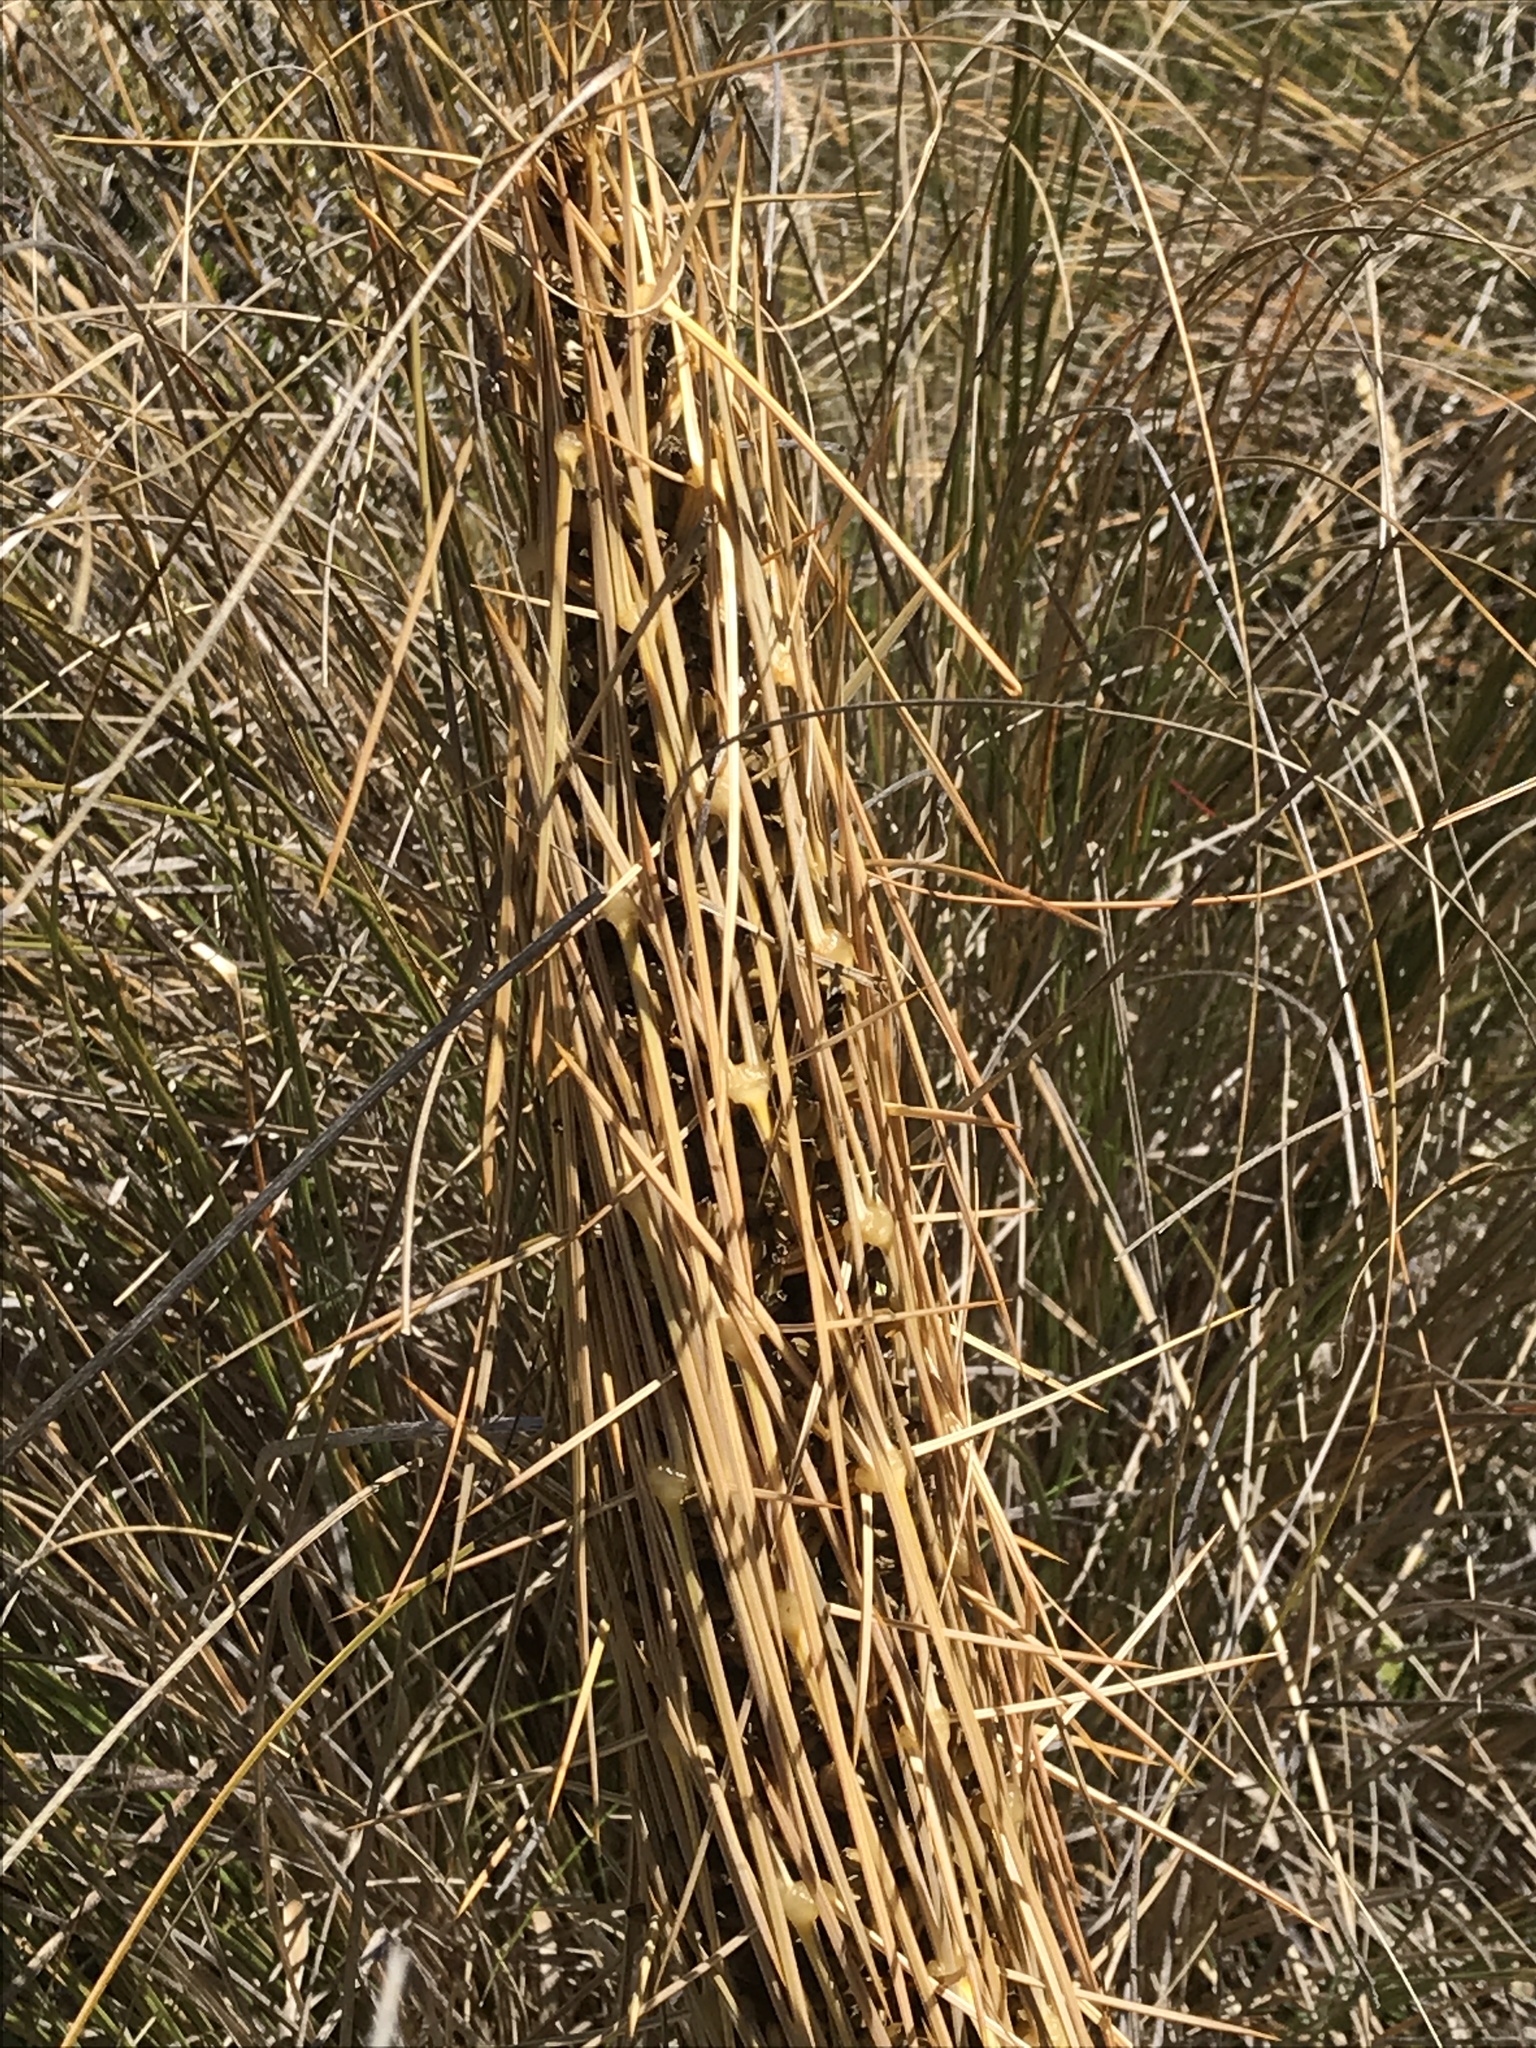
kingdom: Plantae
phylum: Tracheophyta
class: Magnoliopsida
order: Apiales
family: Apiaceae
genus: Aciphylla
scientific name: Aciphylla subflabellata
